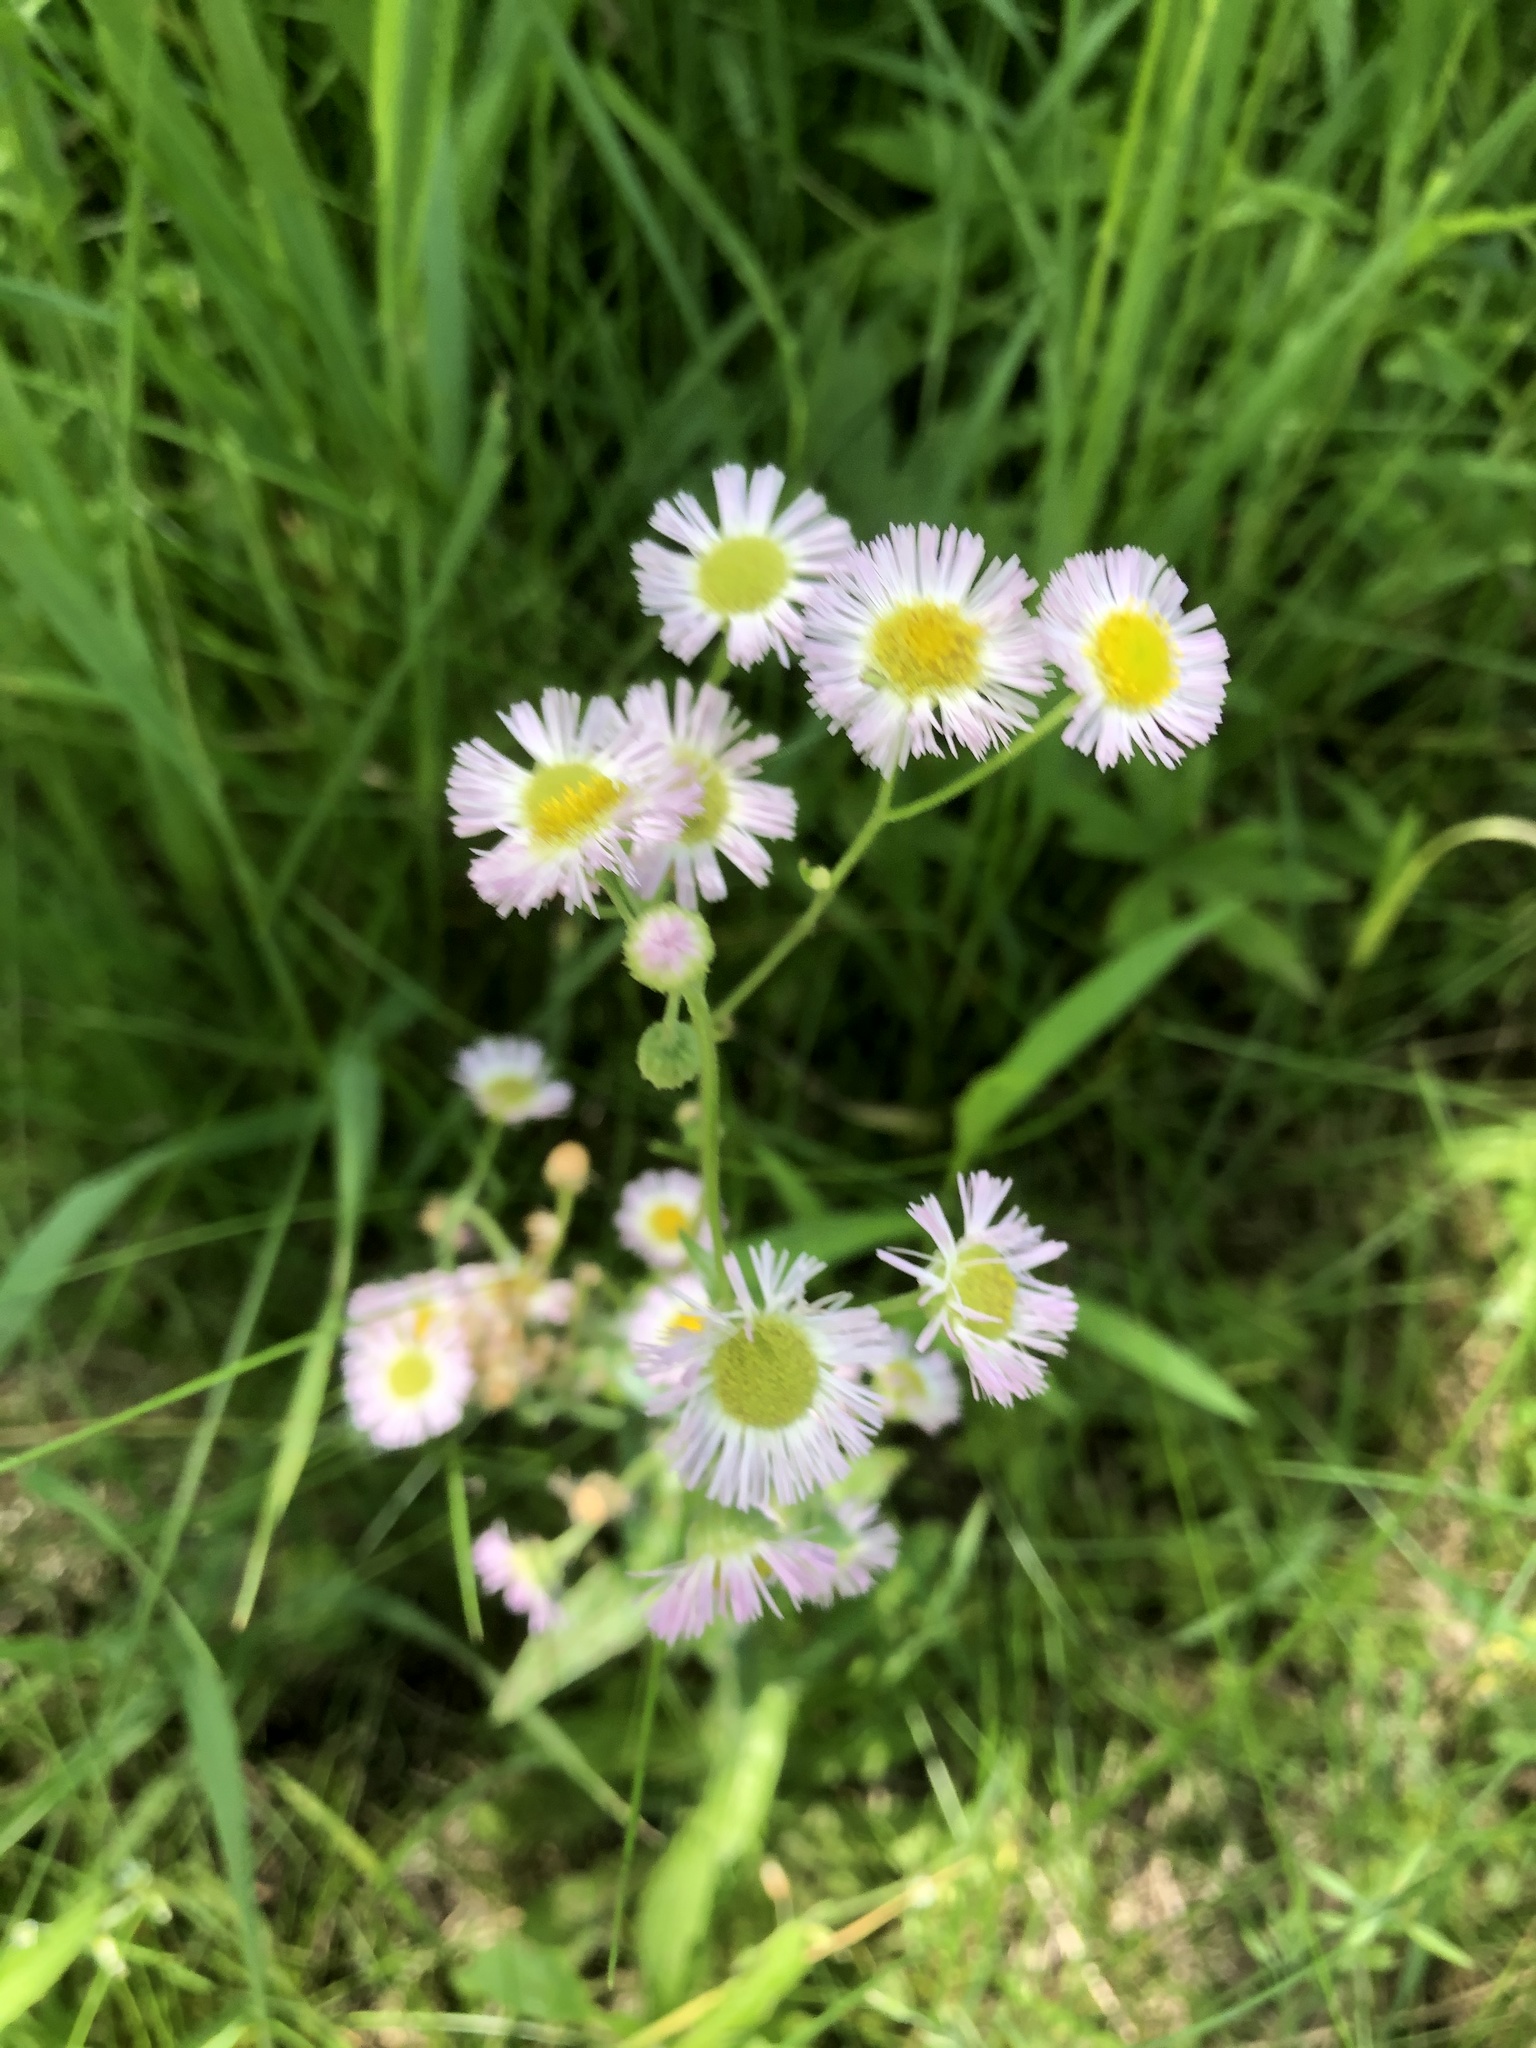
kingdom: Plantae
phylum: Tracheophyta
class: Magnoliopsida
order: Asterales
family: Asteraceae
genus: Erigeron
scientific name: Erigeron philadelphicus
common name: Robin's-plantain
